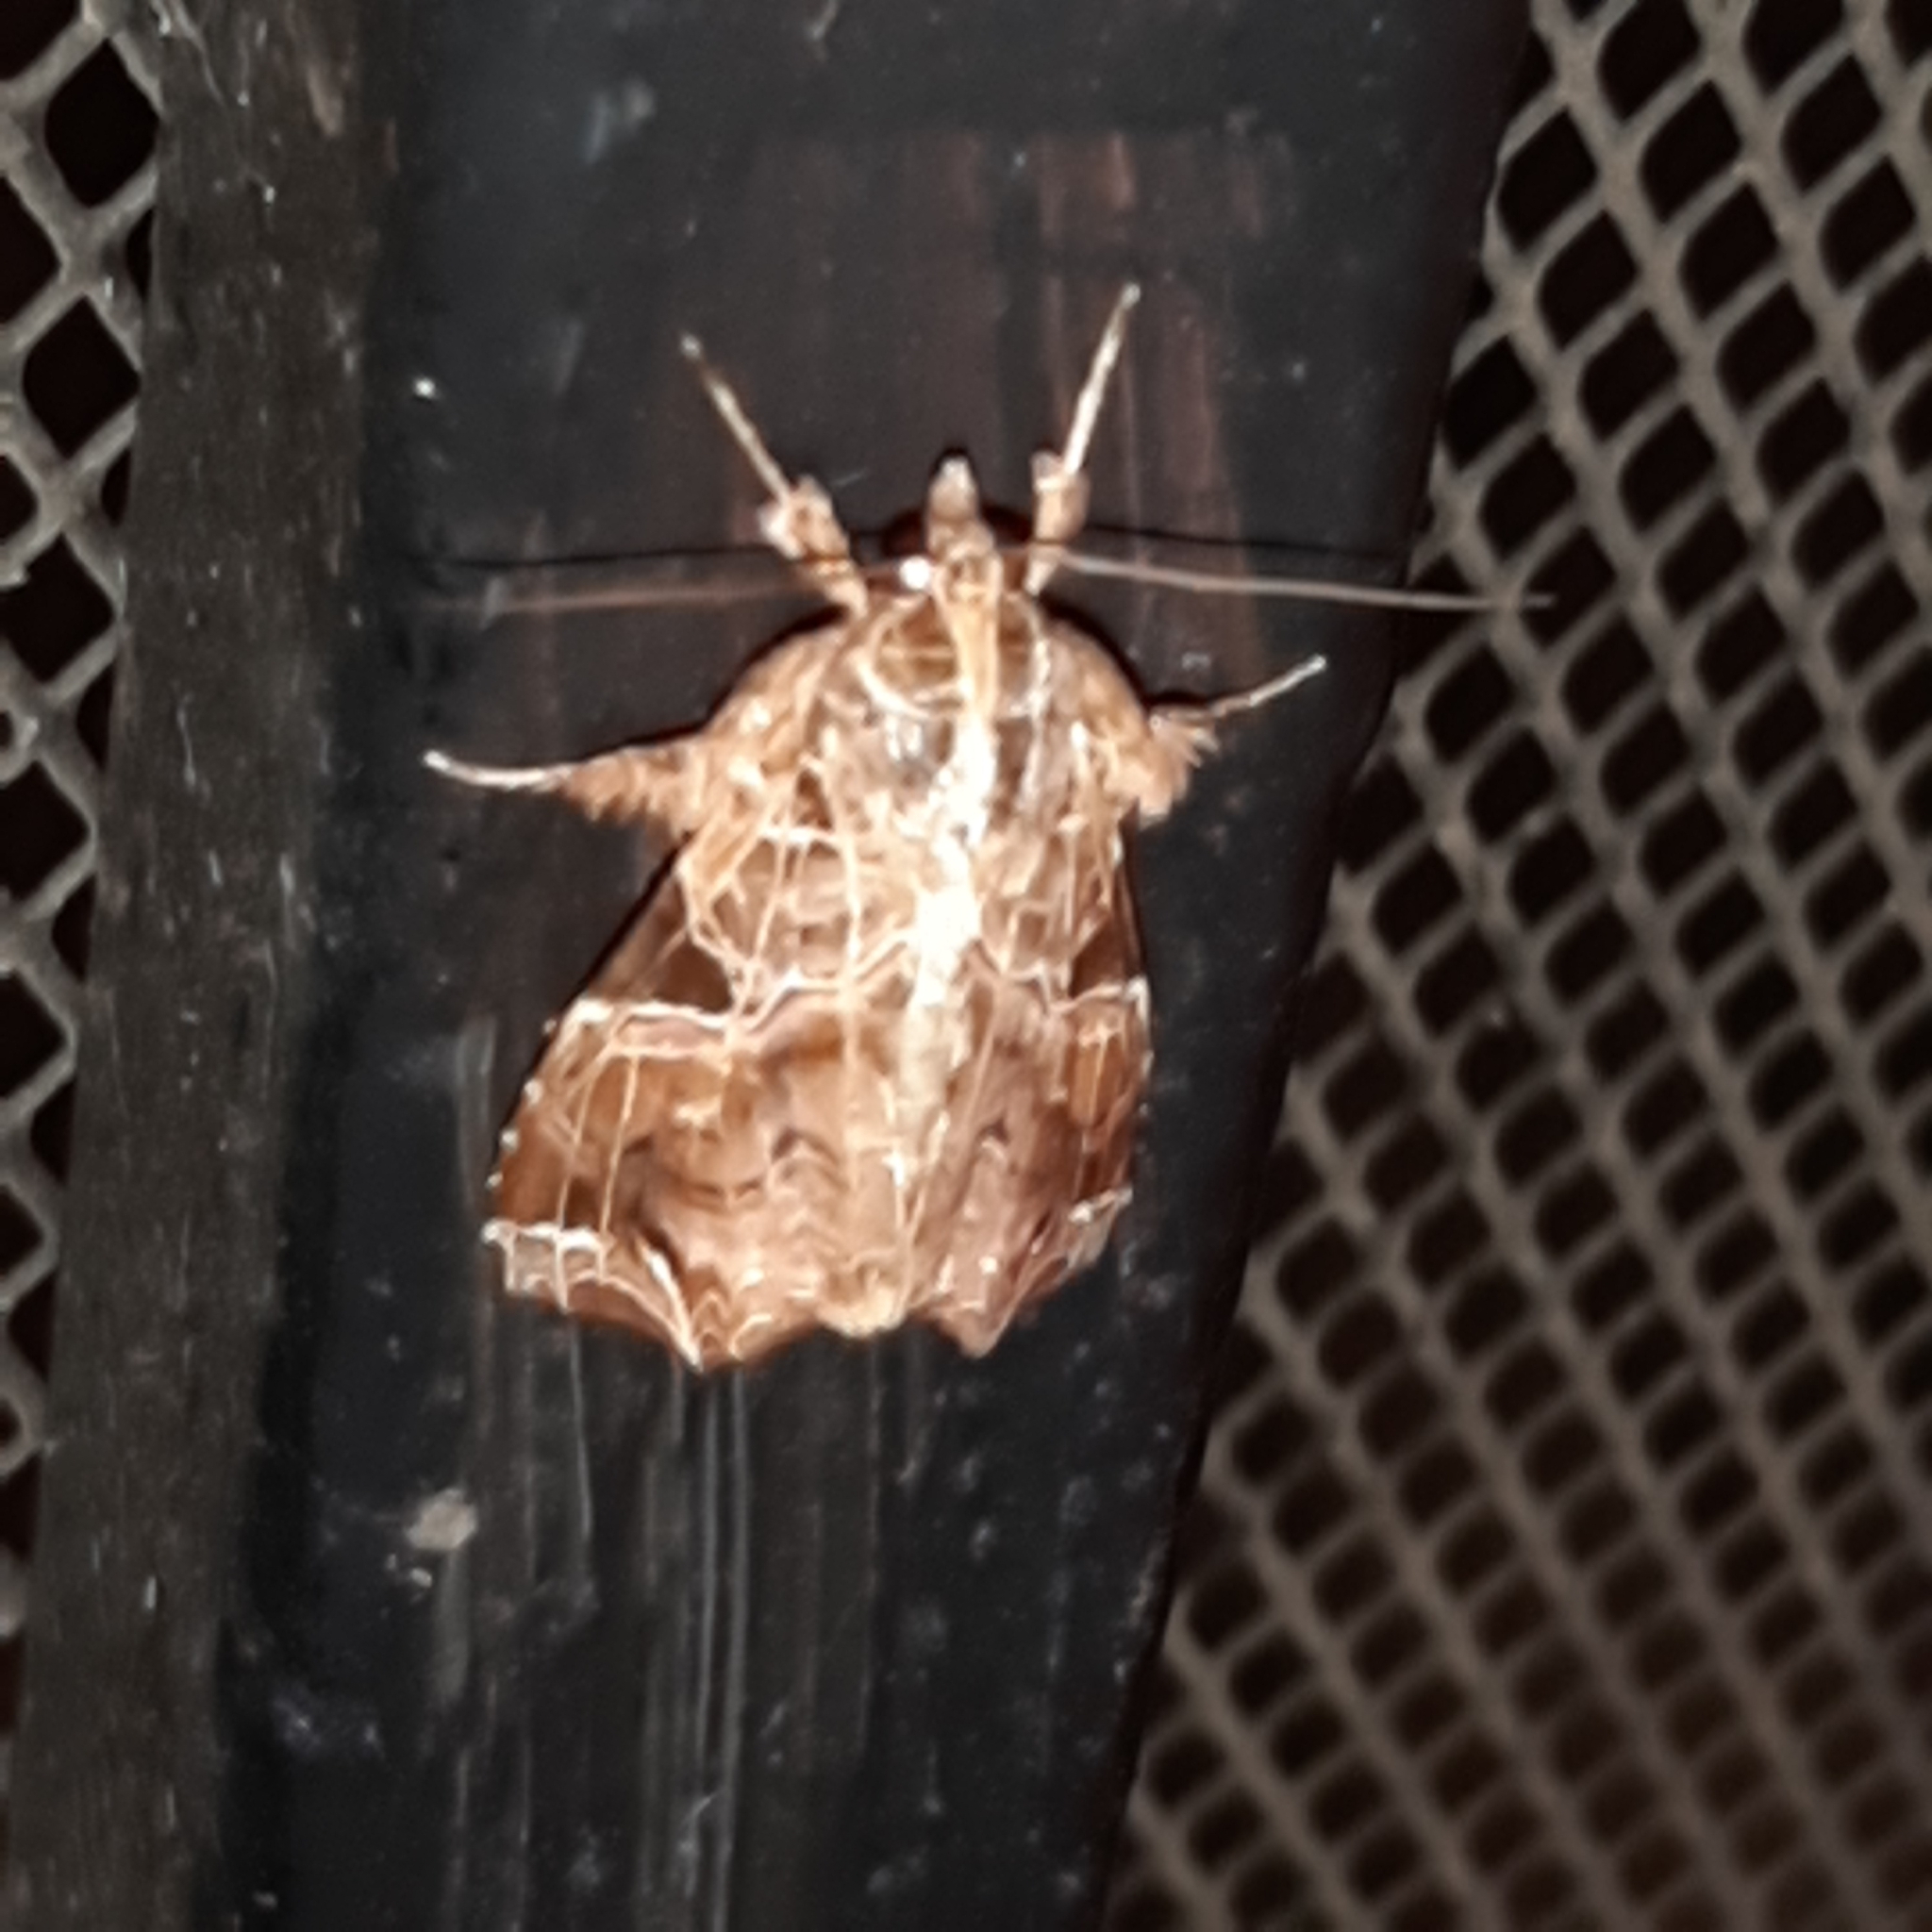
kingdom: Animalia
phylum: Arthropoda
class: Insecta
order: Lepidoptera
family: Noctuidae
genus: Callopistria
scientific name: Callopistria floridensis
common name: Florida fern moth
